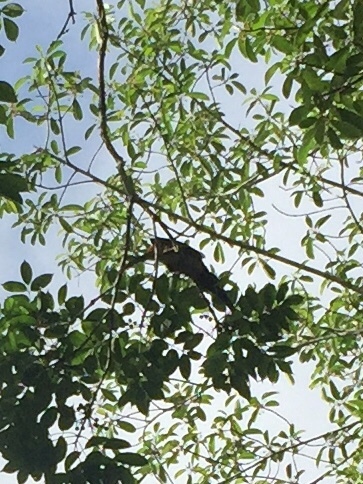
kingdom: Animalia
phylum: Chordata
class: Aves
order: Piciformes
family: Ramphastidae
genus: Pteroglossus
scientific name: Pteroglossus torquatus
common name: Collared aracari
